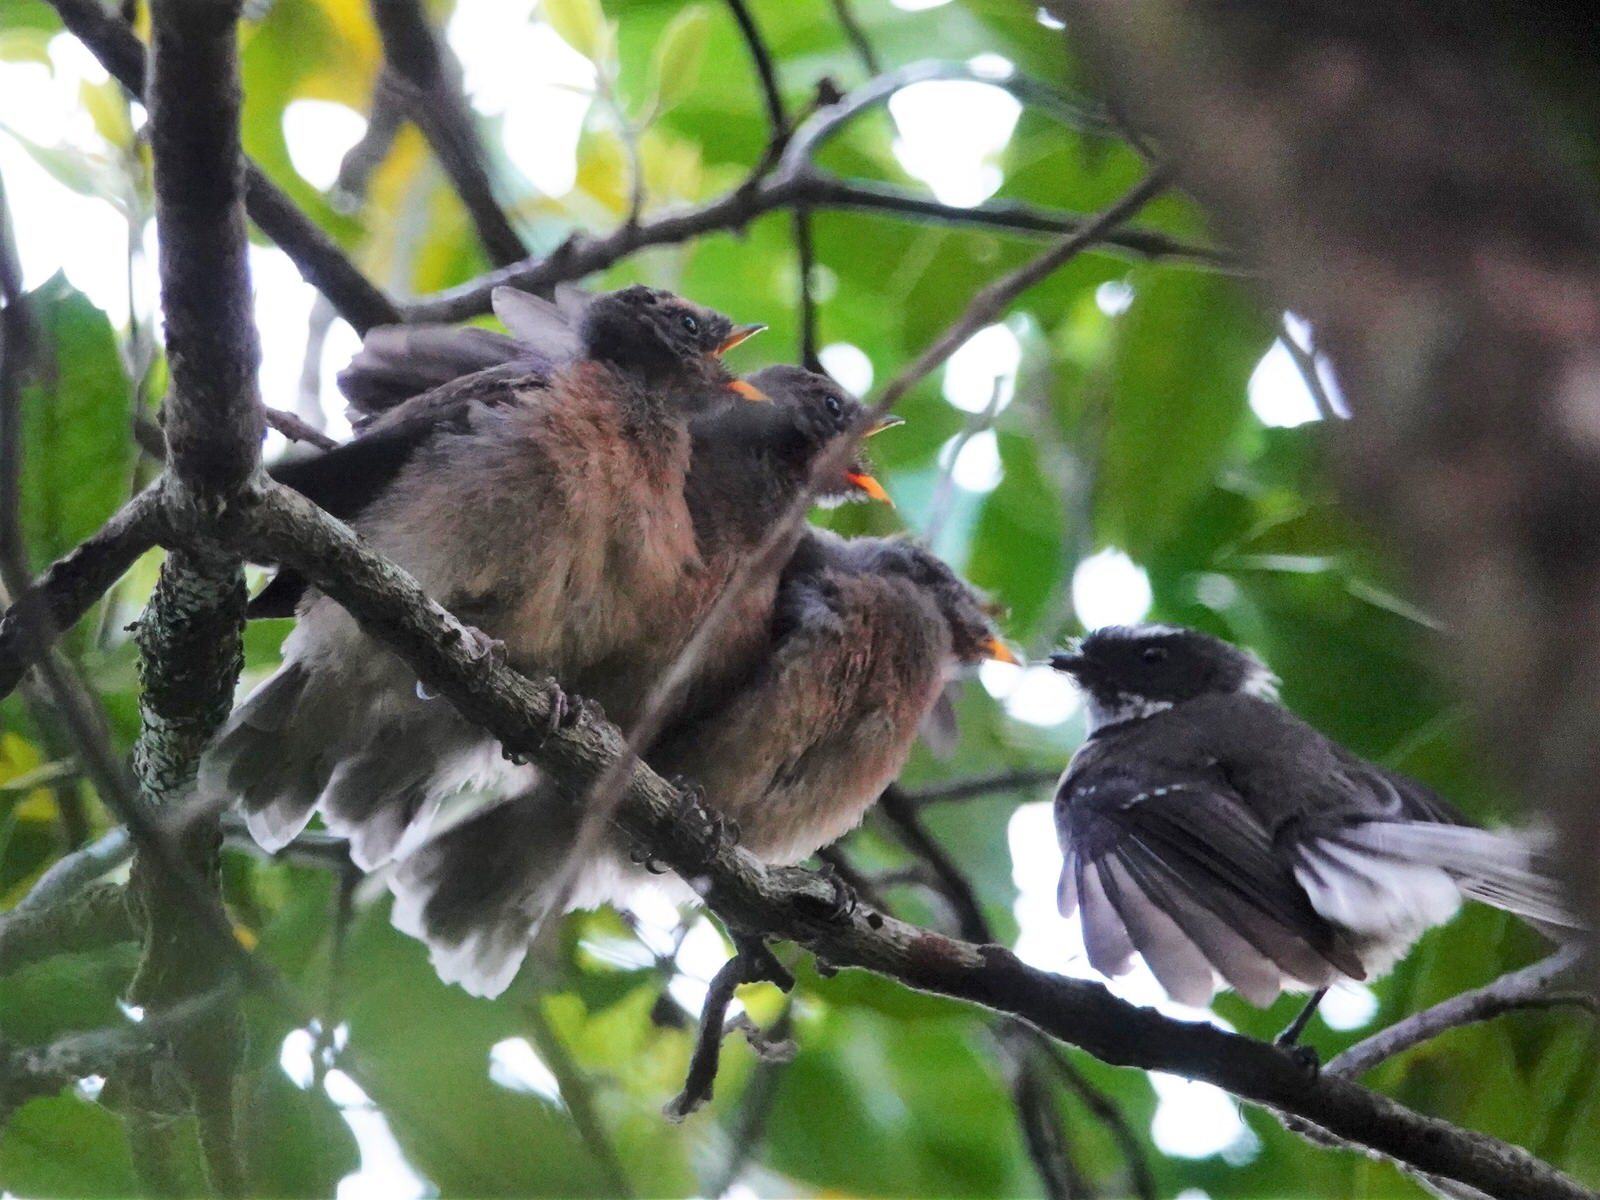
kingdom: Animalia
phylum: Chordata
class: Aves
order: Passeriformes
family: Rhipiduridae
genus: Rhipidura
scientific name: Rhipidura fuliginosa
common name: New zealand fantail
